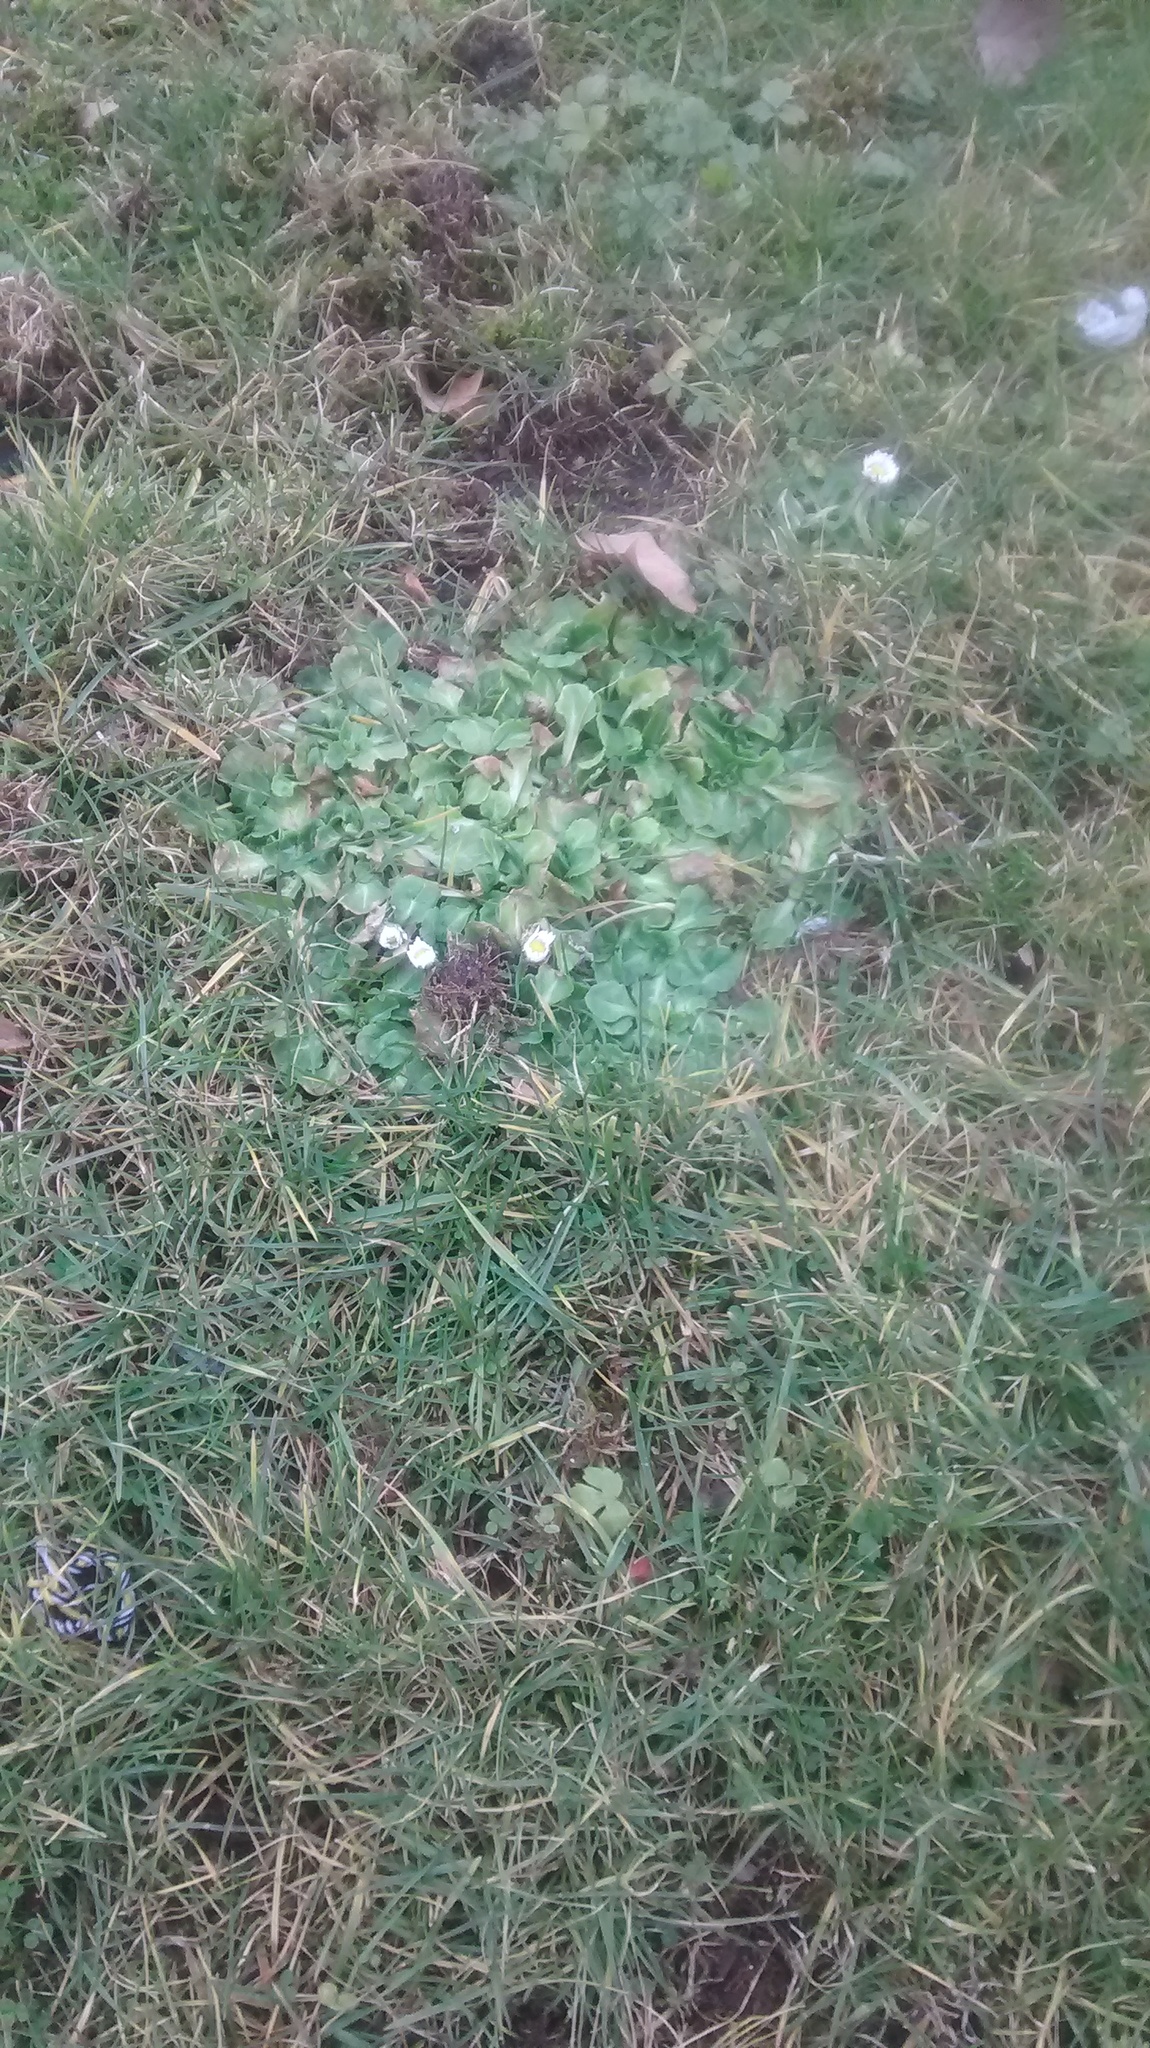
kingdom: Plantae
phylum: Tracheophyta
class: Magnoliopsida
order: Asterales
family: Asteraceae
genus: Bellis
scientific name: Bellis perennis
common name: Lawndaisy
